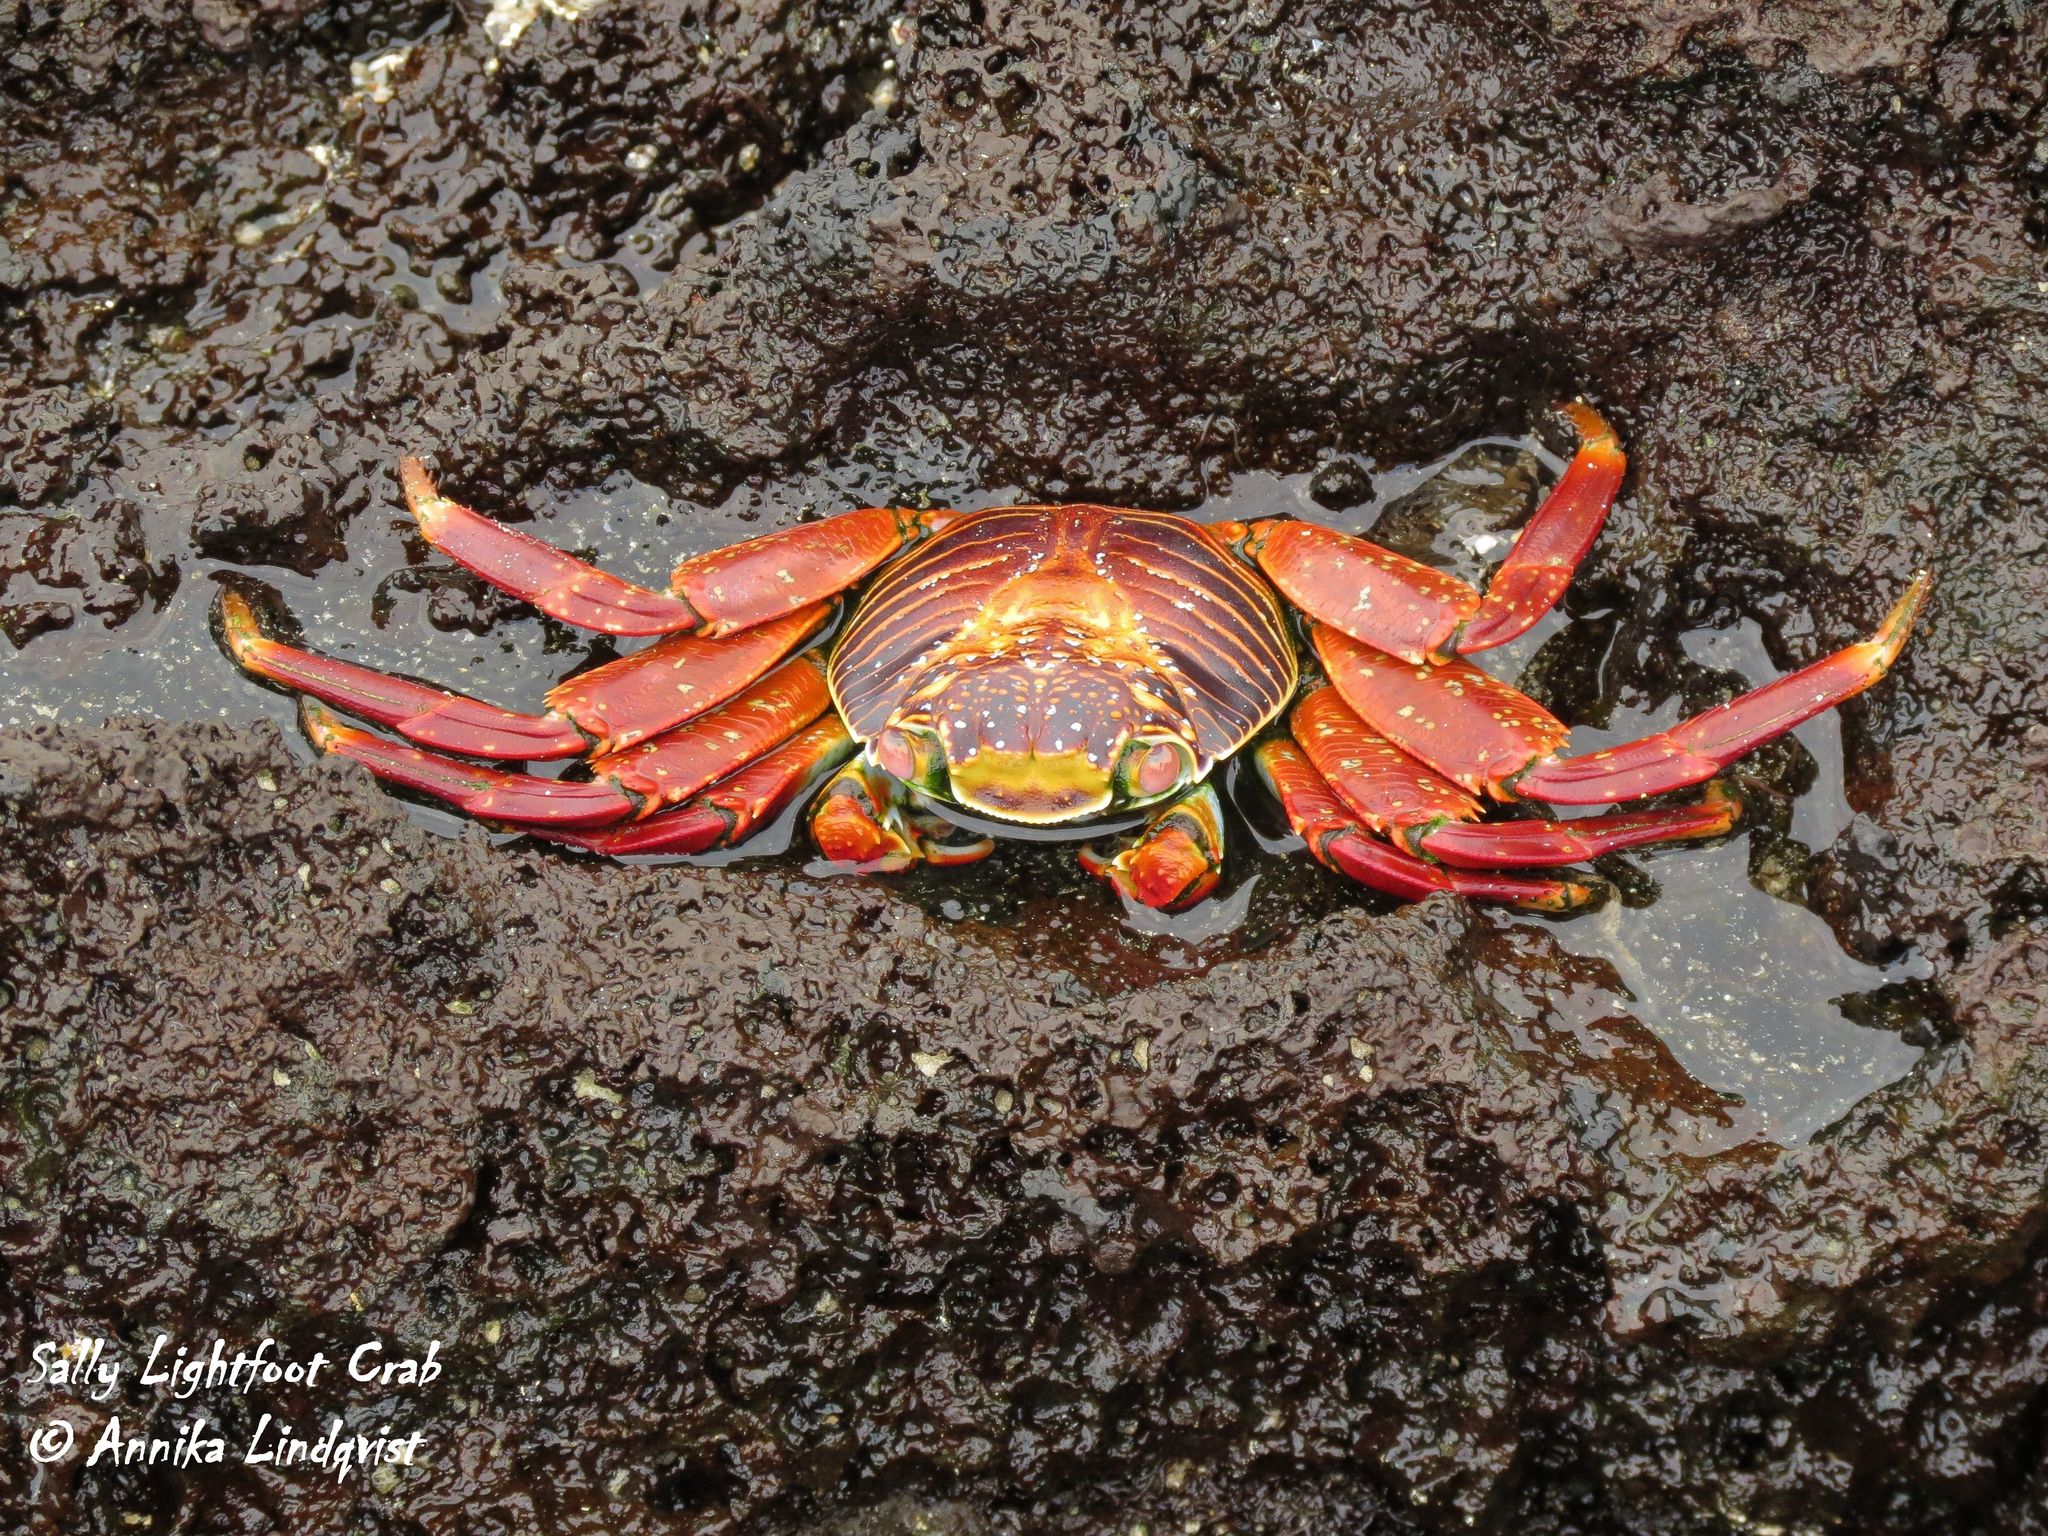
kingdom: Animalia
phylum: Arthropoda
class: Malacostraca
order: Decapoda
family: Grapsidae
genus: Grapsus
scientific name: Grapsus grapsus
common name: Sally lightfoot
